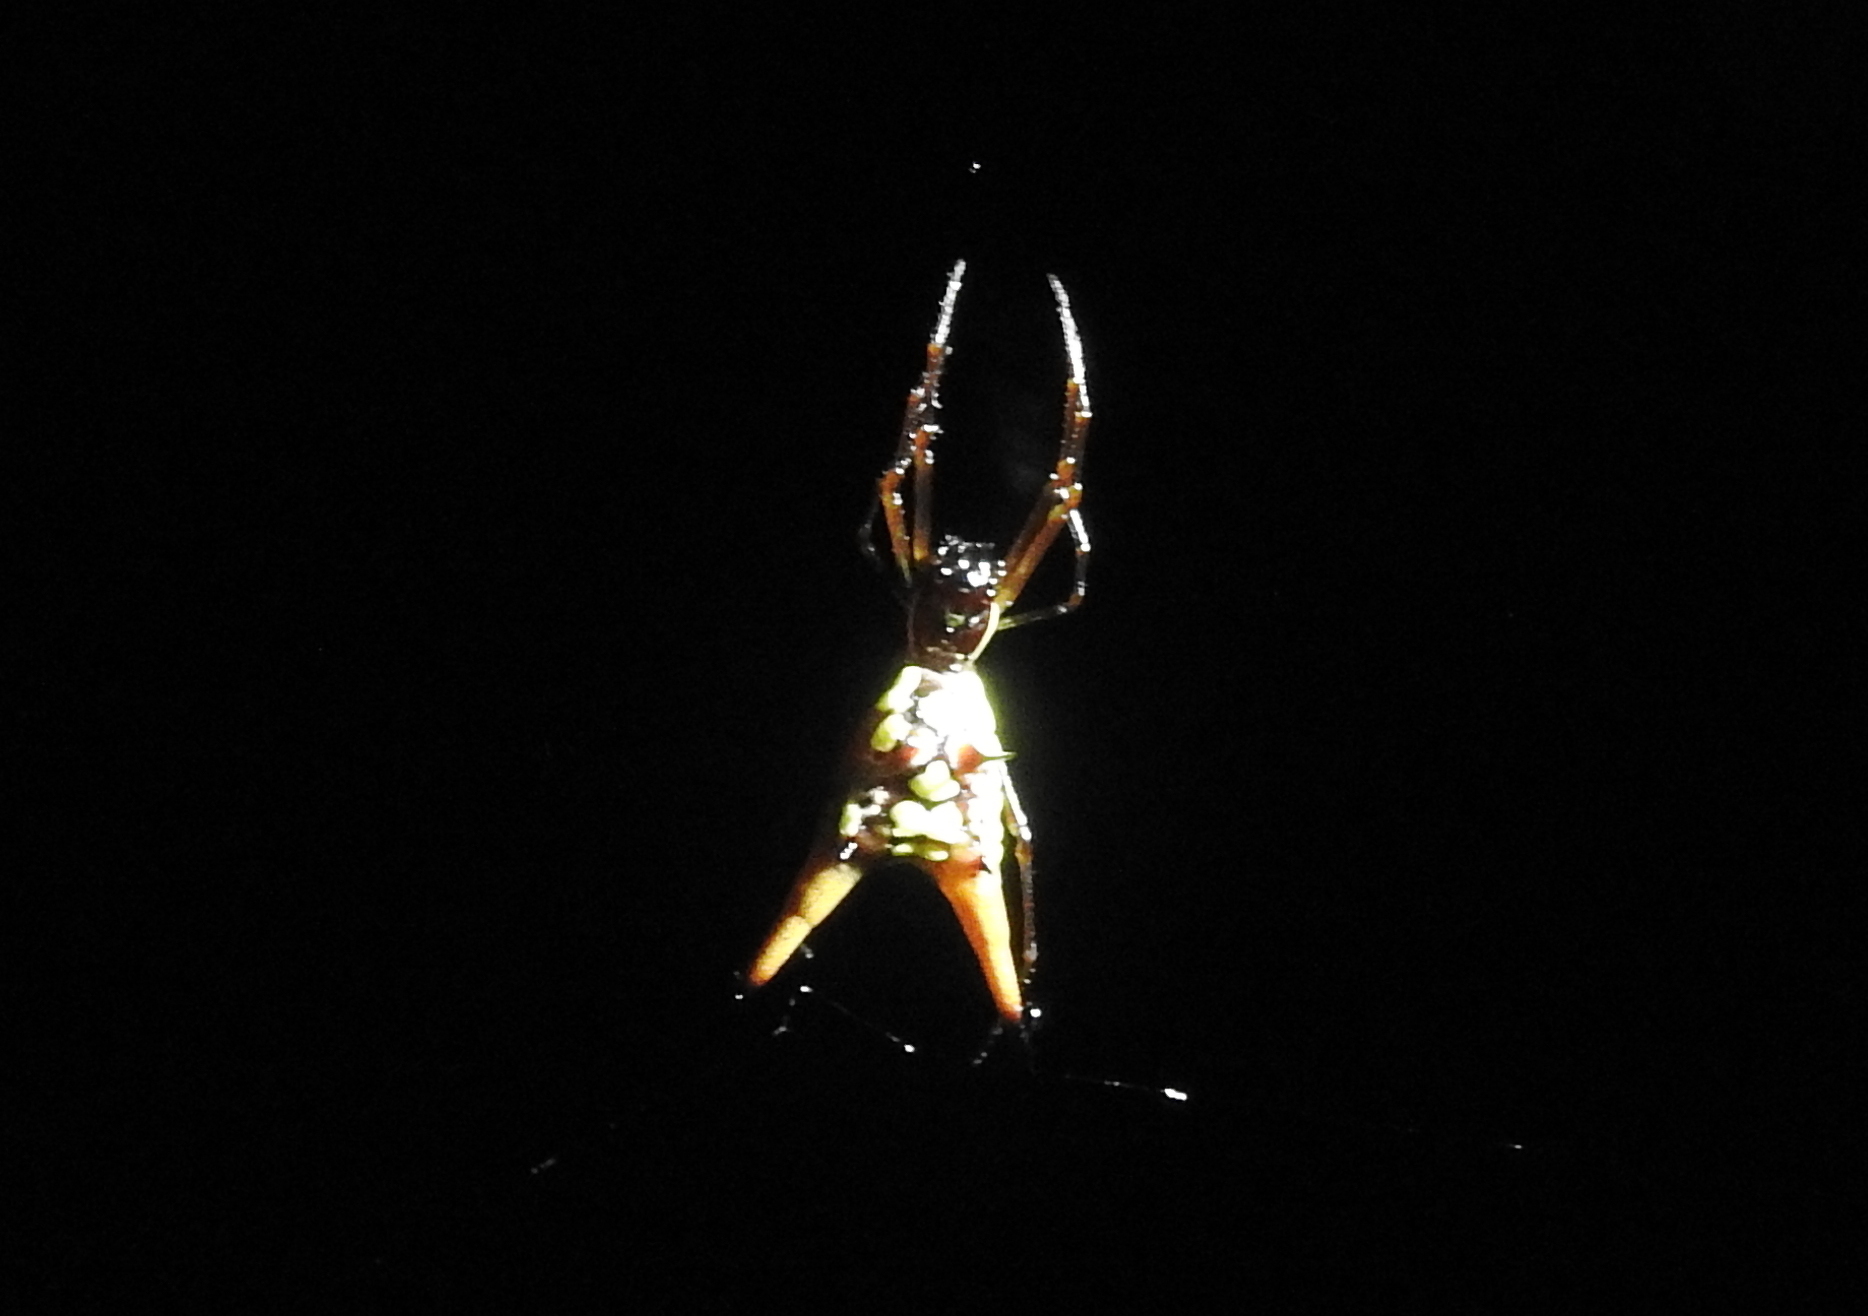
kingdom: Animalia
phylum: Arthropoda
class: Arachnida
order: Araneae
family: Araneidae
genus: Micrathena
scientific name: Micrathena brevipes
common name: Orb weavers
